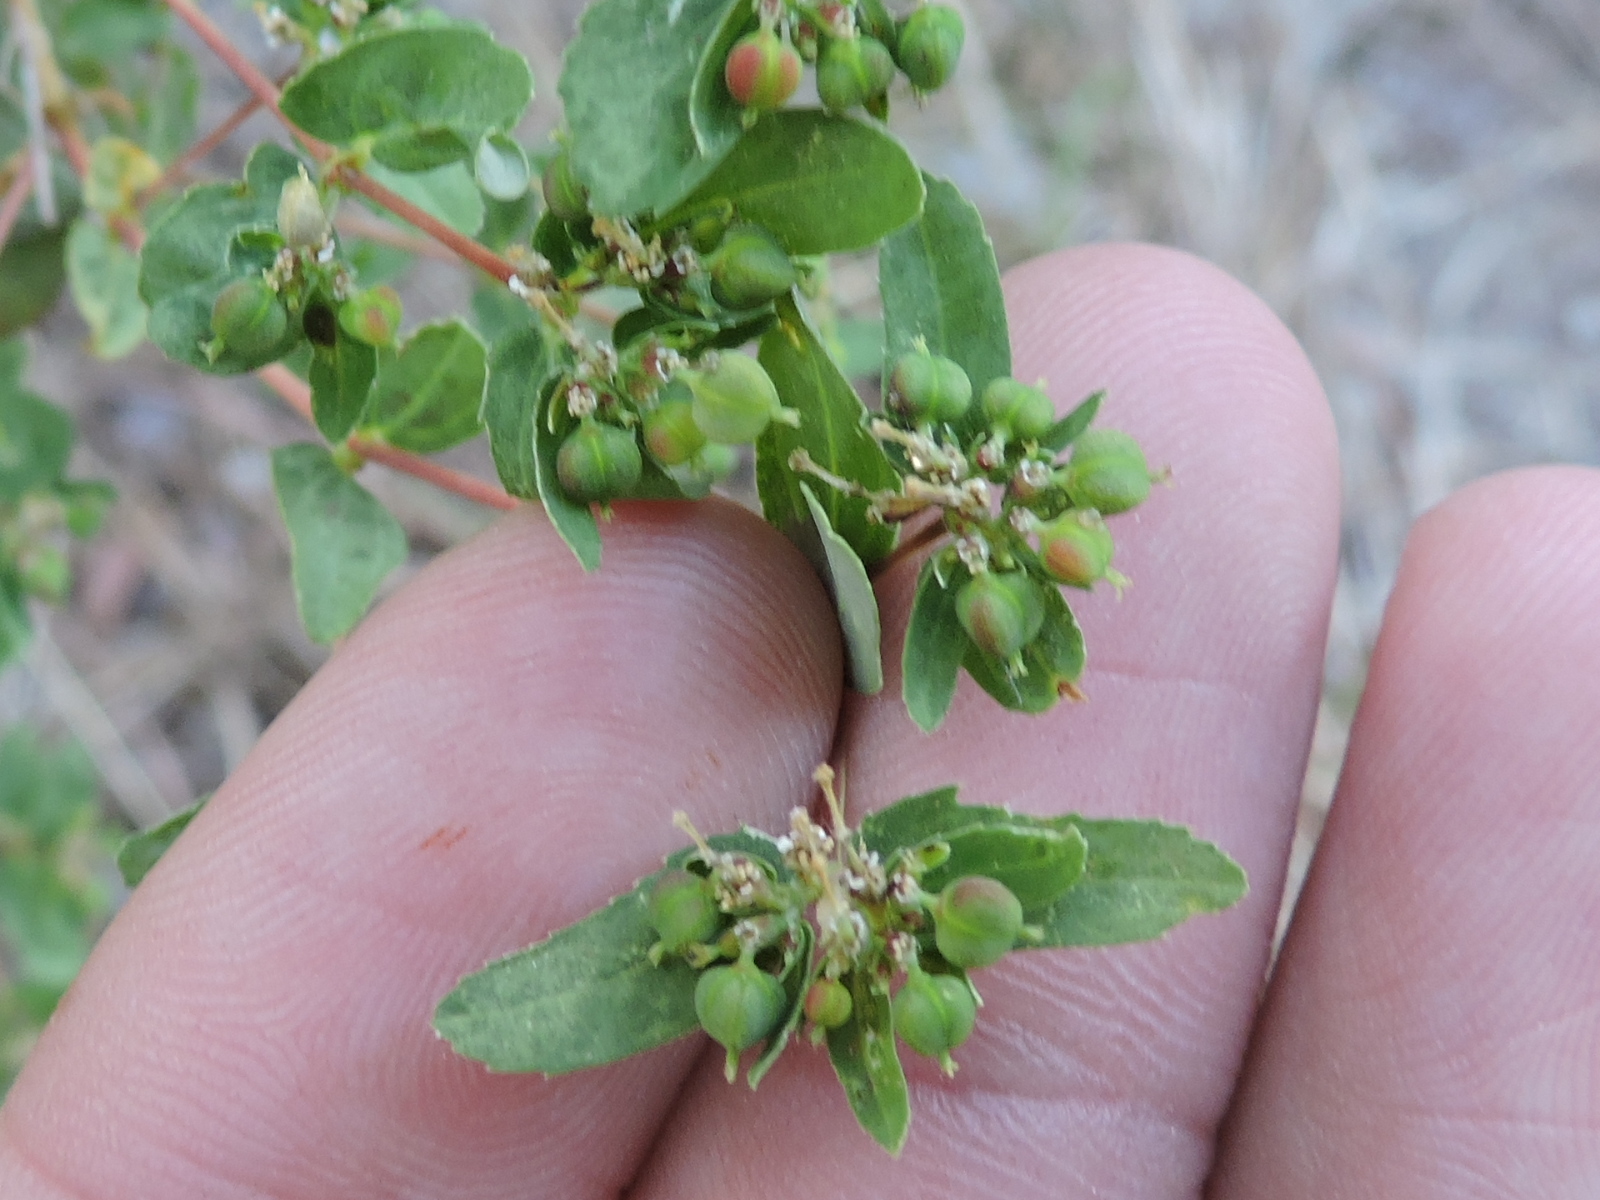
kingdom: Plantae
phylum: Tracheophyta
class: Magnoliopsida
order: Malpighiales
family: Euphorbiaceae
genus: Euphorbia
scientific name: Euphorbia hyssopifolia
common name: Hyssopleaf sandmat
